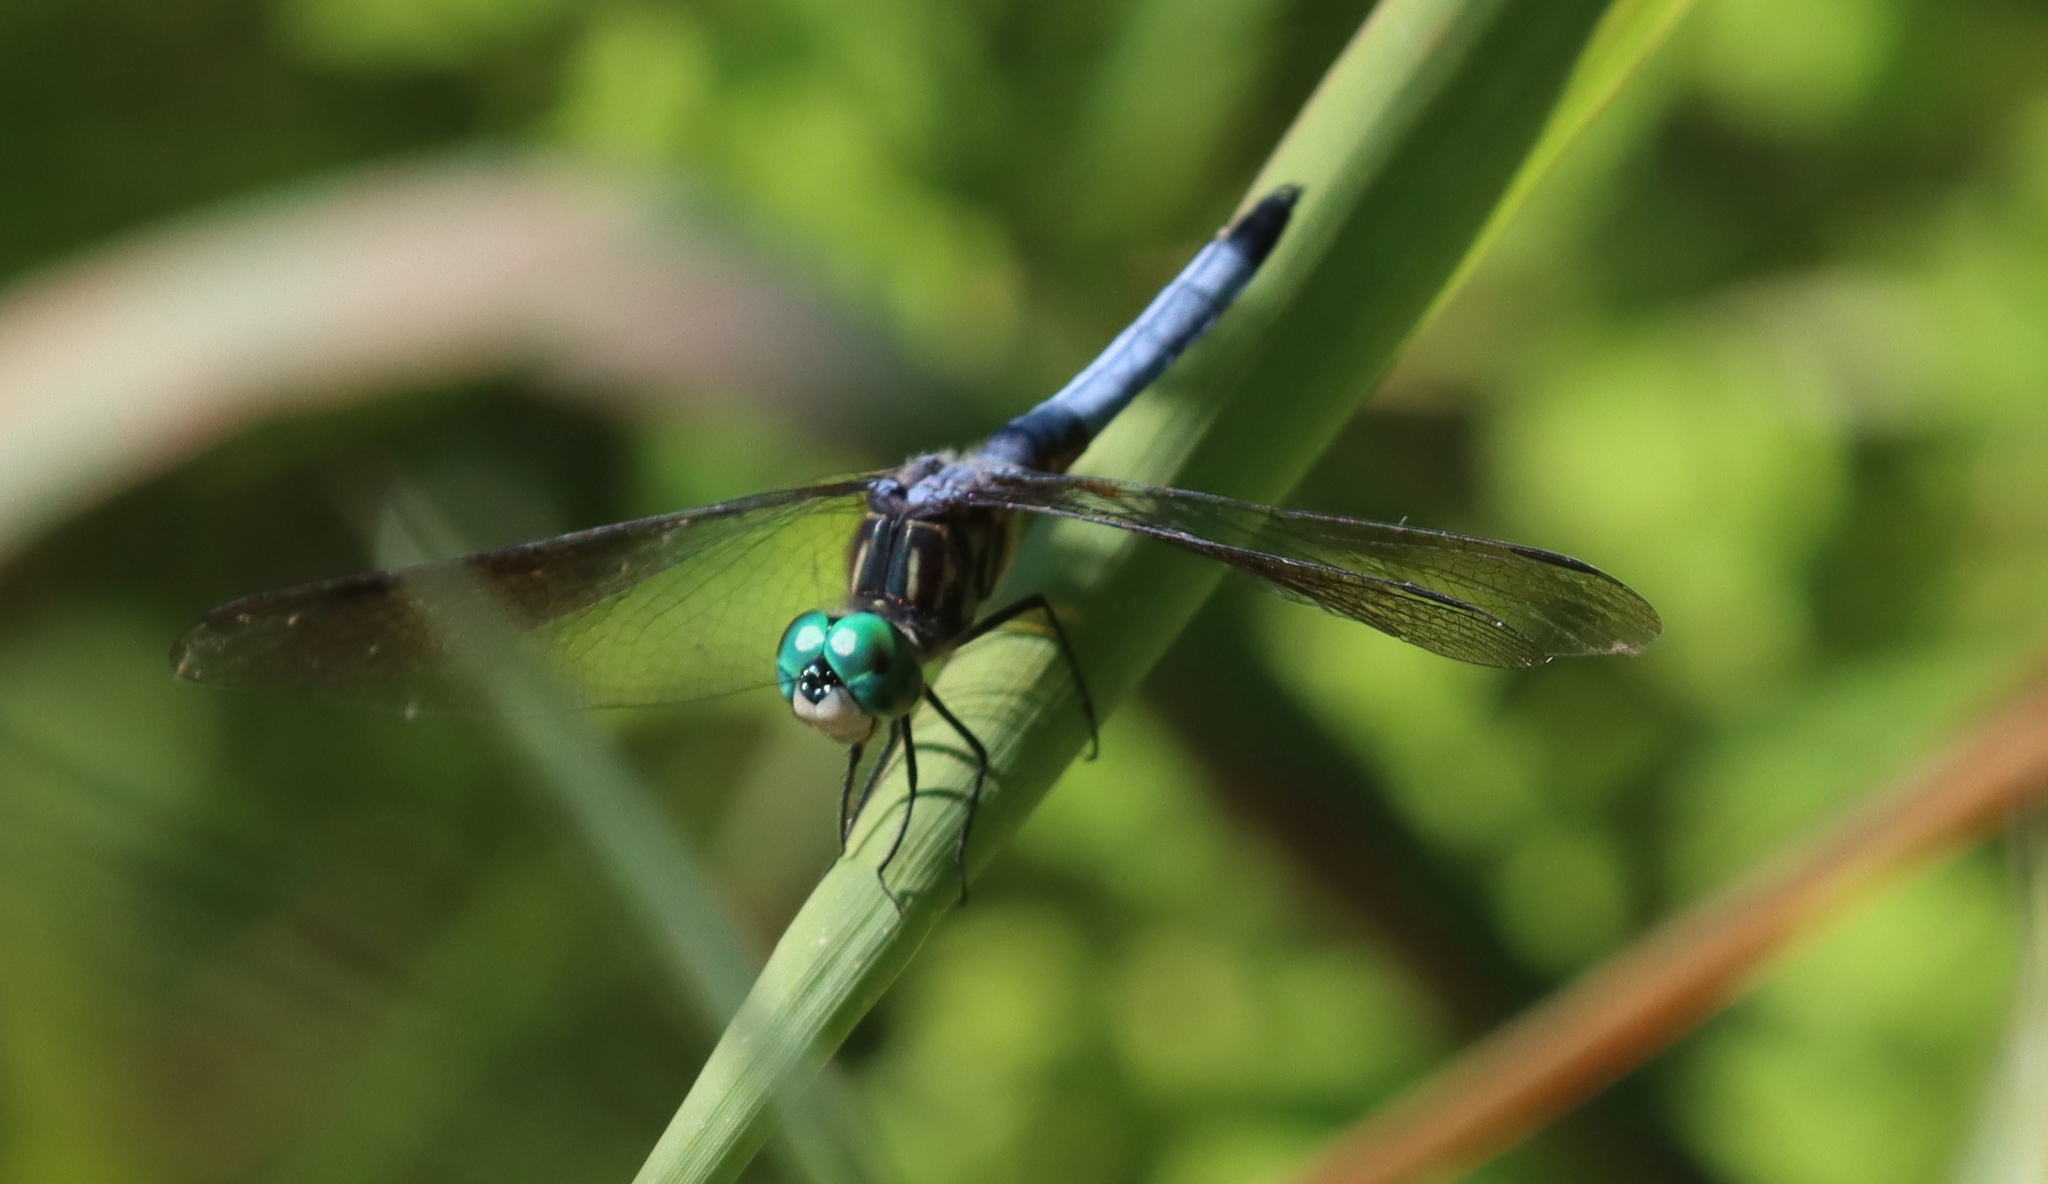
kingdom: Animalia
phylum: Arthropoda
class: Insecta
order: Odonata
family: Libellulidae
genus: Pachydiplax
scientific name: Pachydiplax longipennis
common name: Blue dasher
